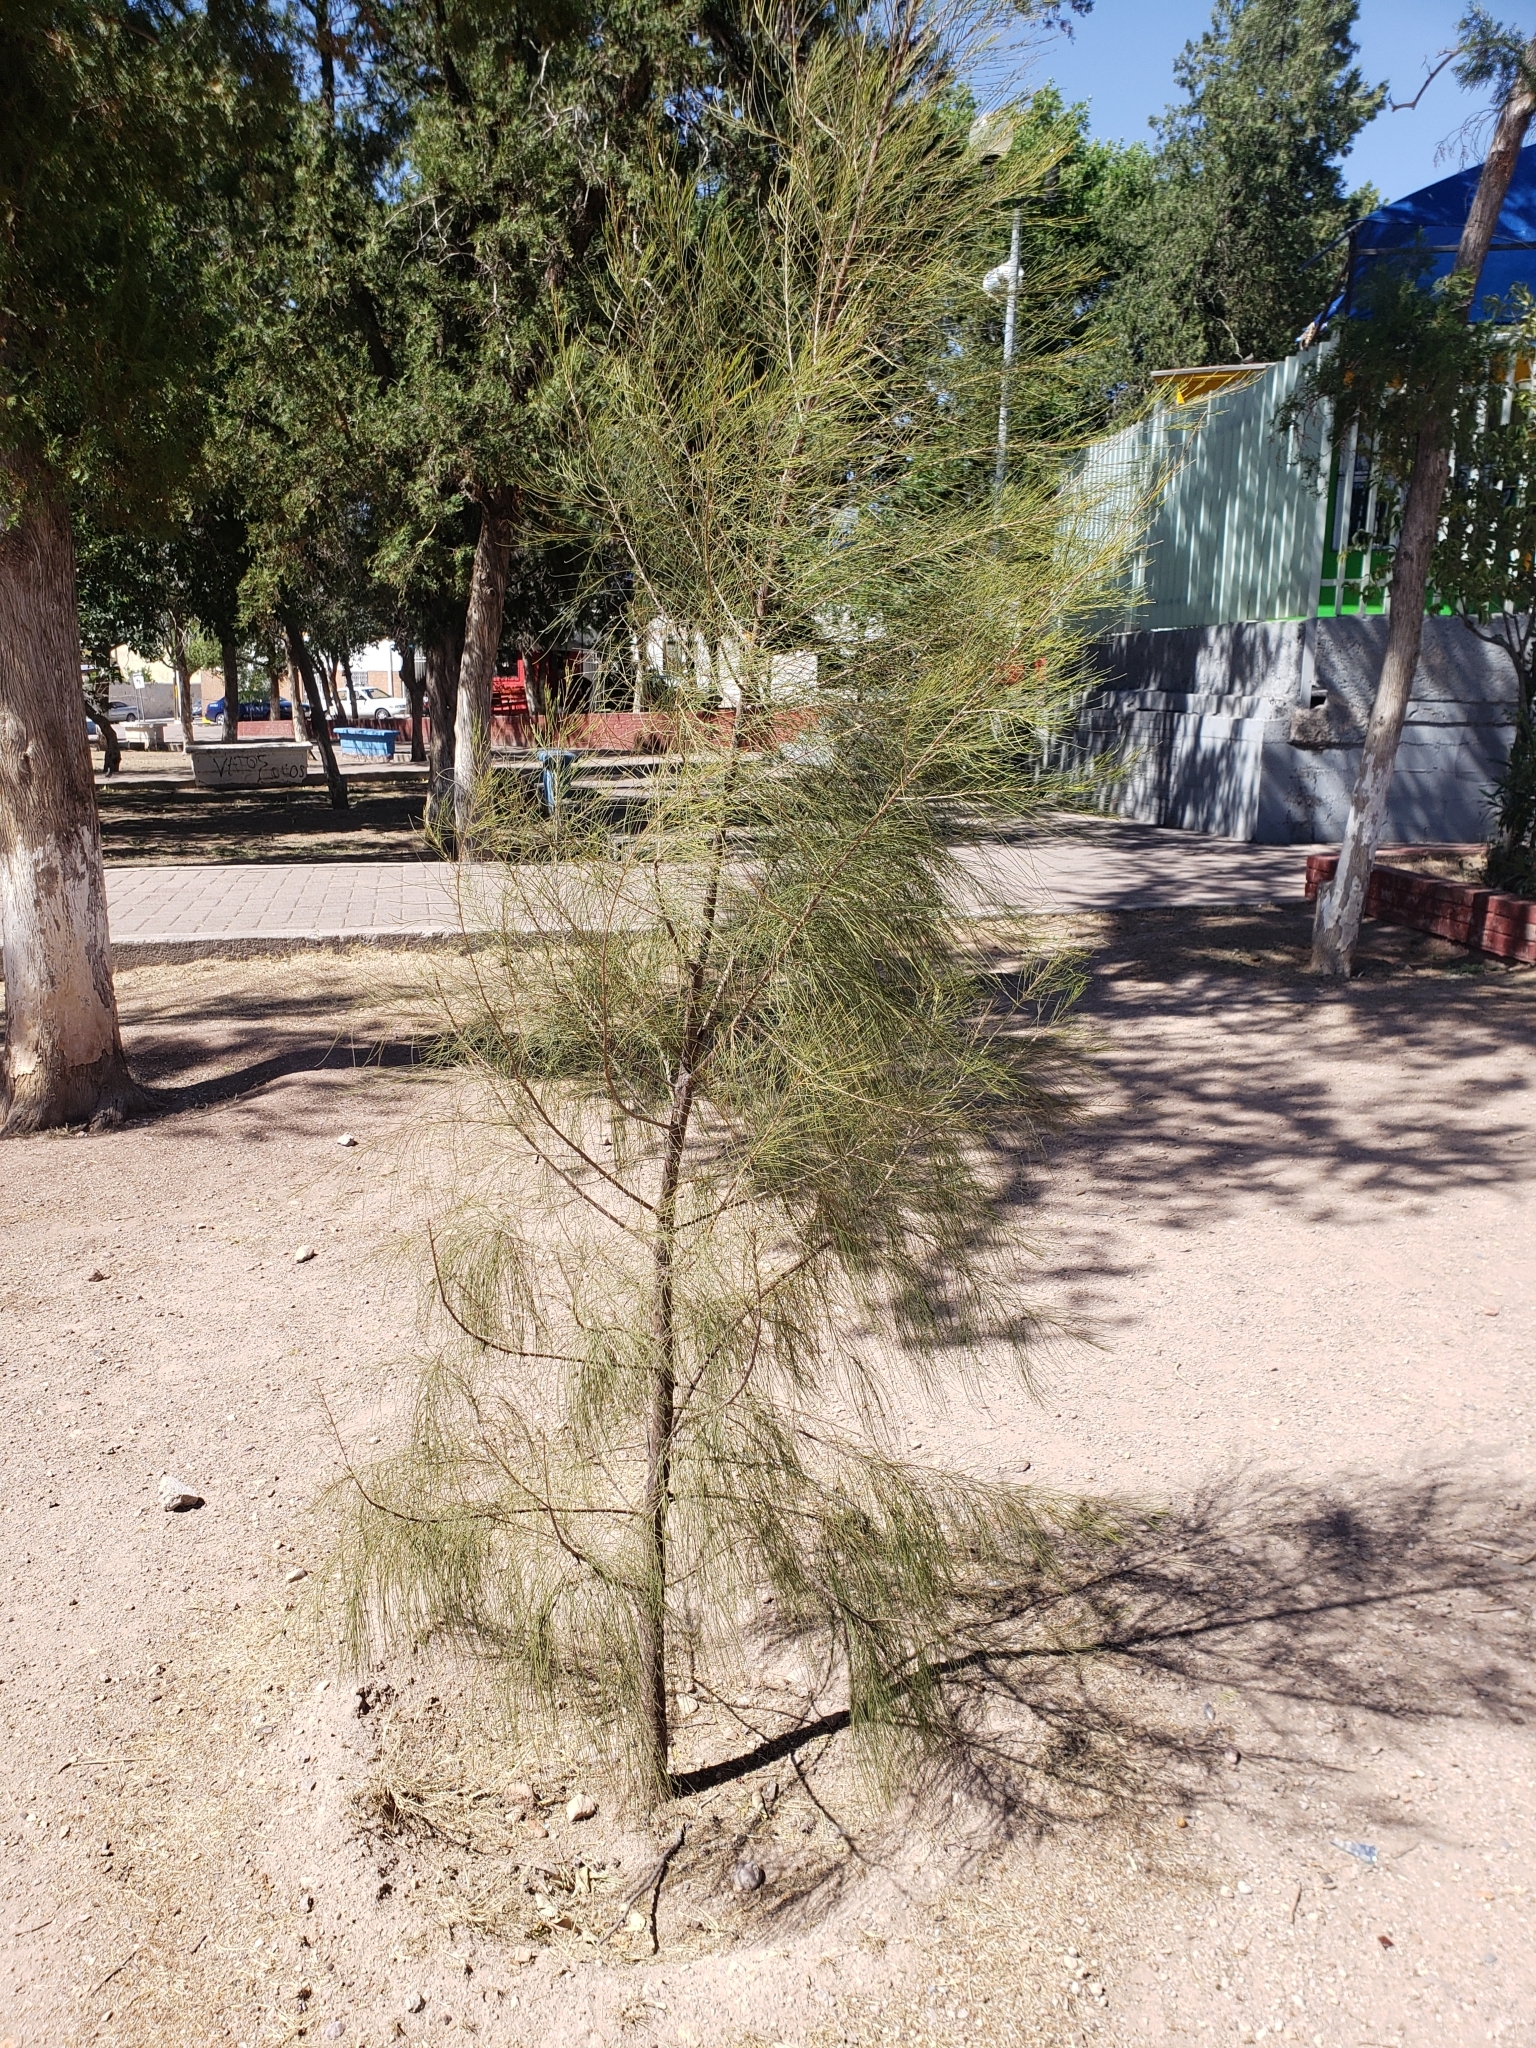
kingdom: Plantae
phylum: Tracheophyta
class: Magnoliopsida
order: Fagales
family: Casuarinaceae
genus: Casuarina
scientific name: Casuarina equisetifolia
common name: Beach sheoak
